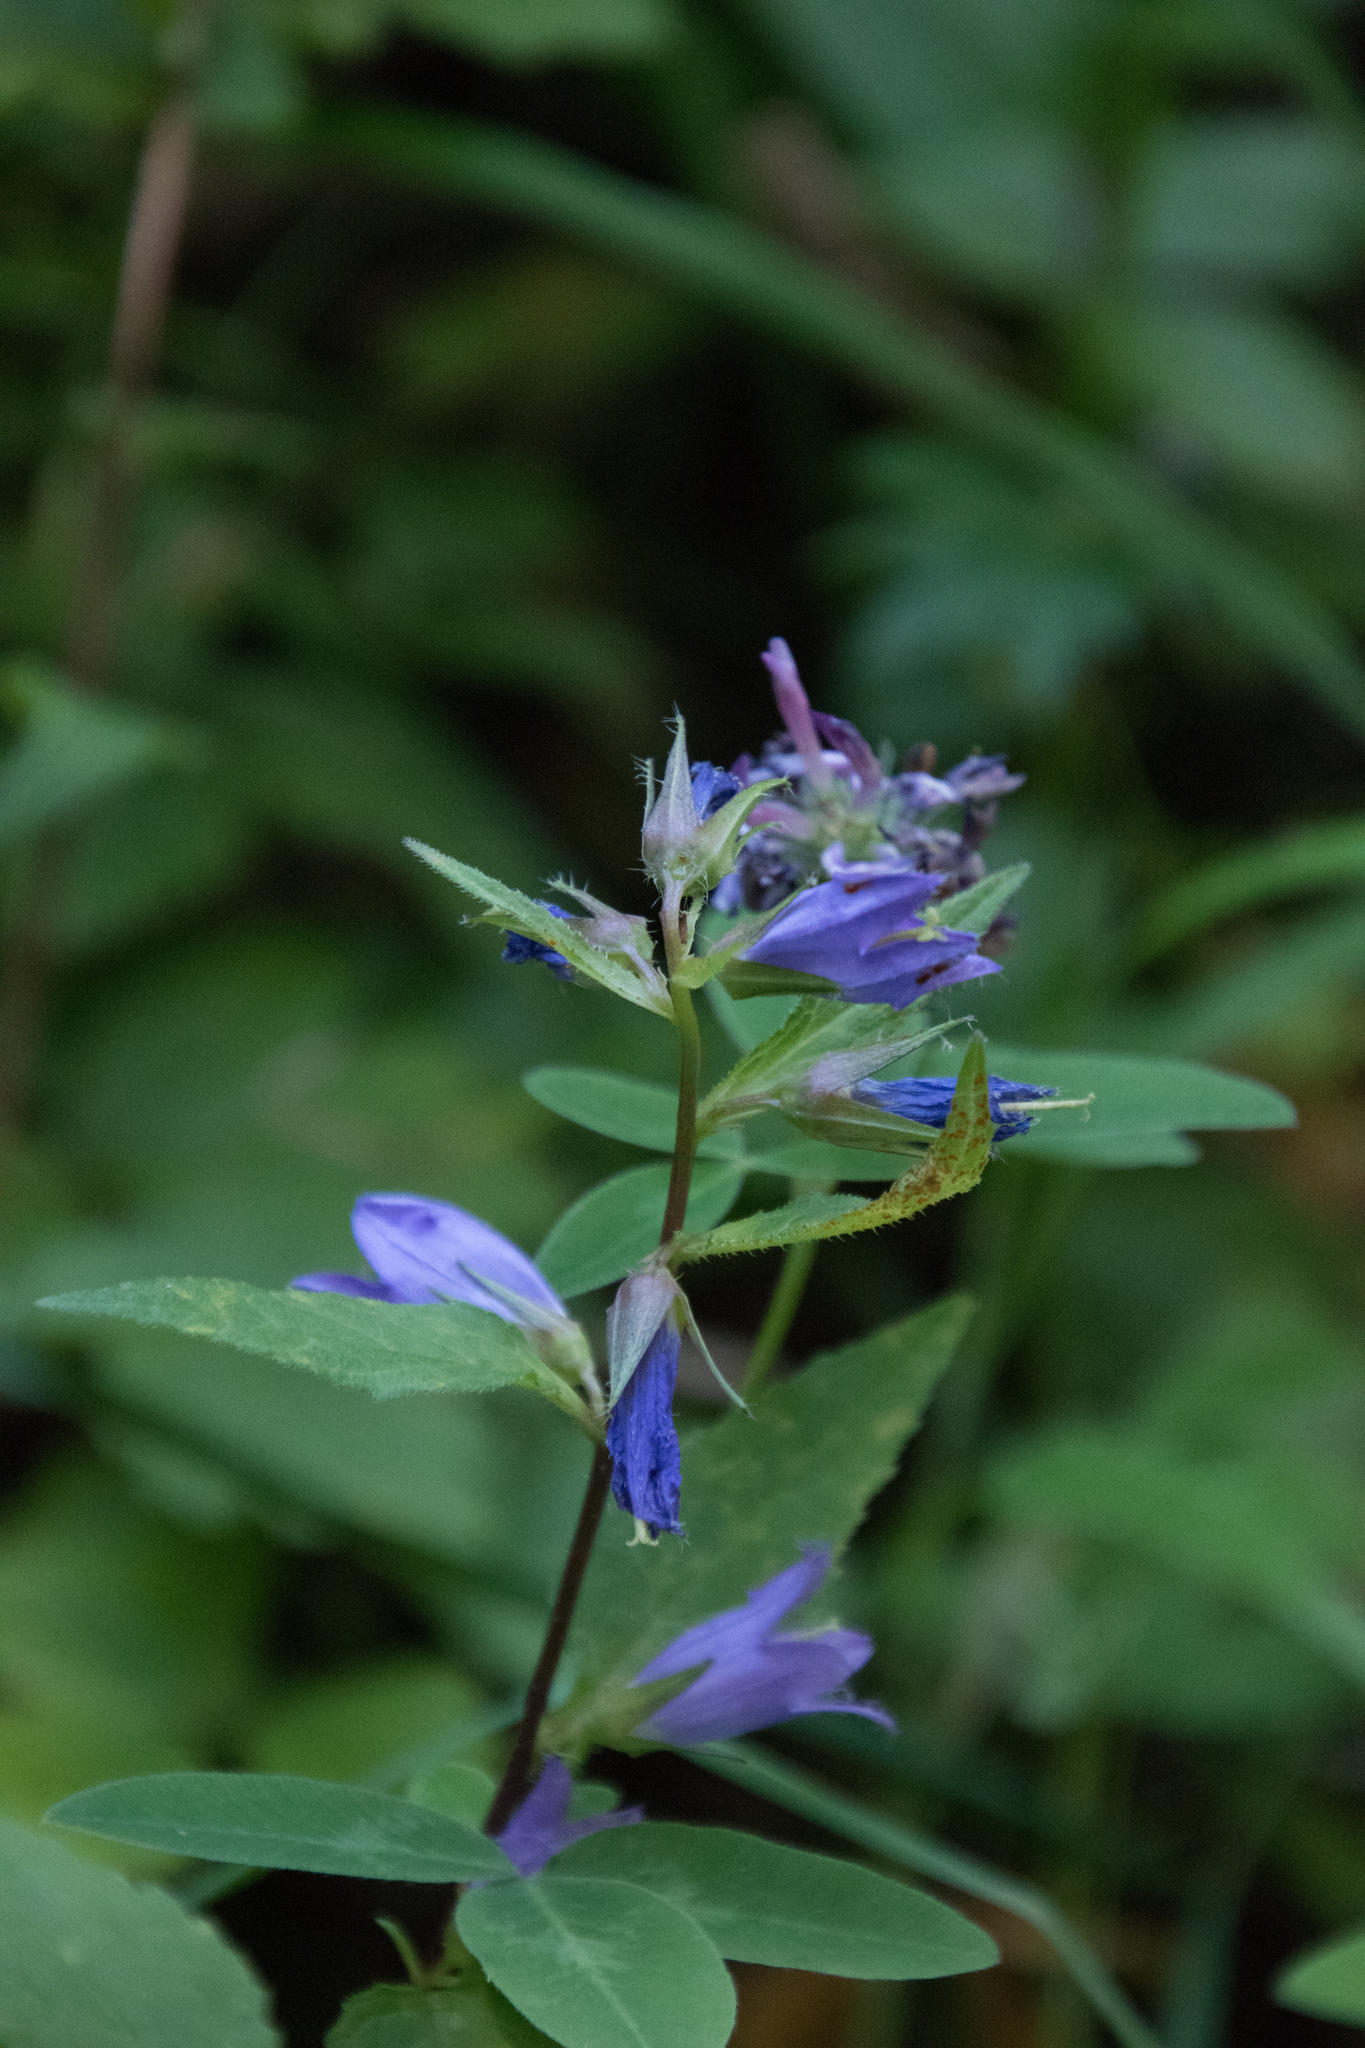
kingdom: Plantae
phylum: Tracheophyta
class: Magnoliopsida
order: Asterales
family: Campanulaceae
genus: Campanula
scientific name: Campanula trachelium
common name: Nettle-leaved bellflower
